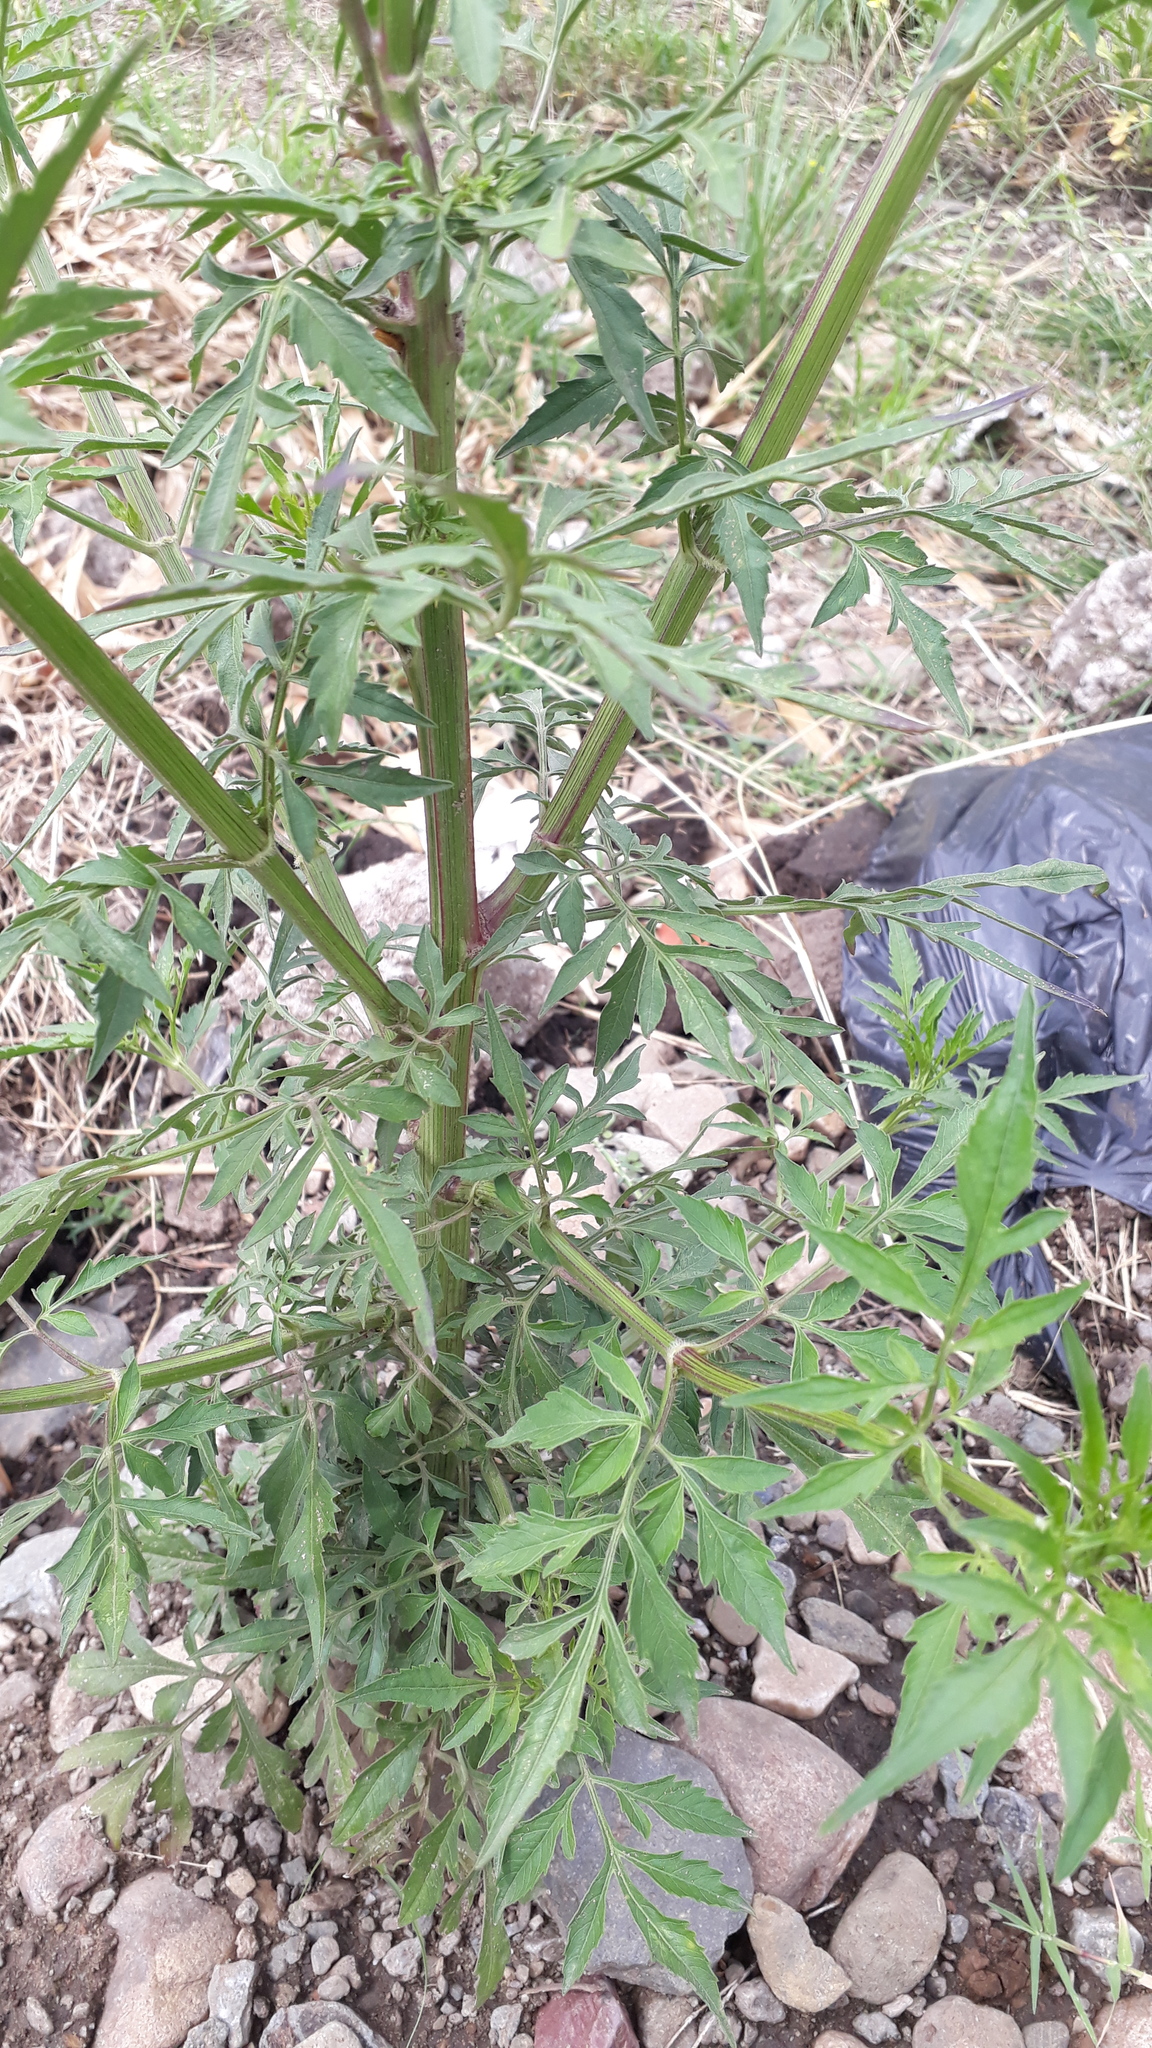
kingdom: Plantae
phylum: Tracheophyta
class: Magnoliopsida
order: Asterales
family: Asteraceae
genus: Bidens
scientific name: Bidens subalternans
